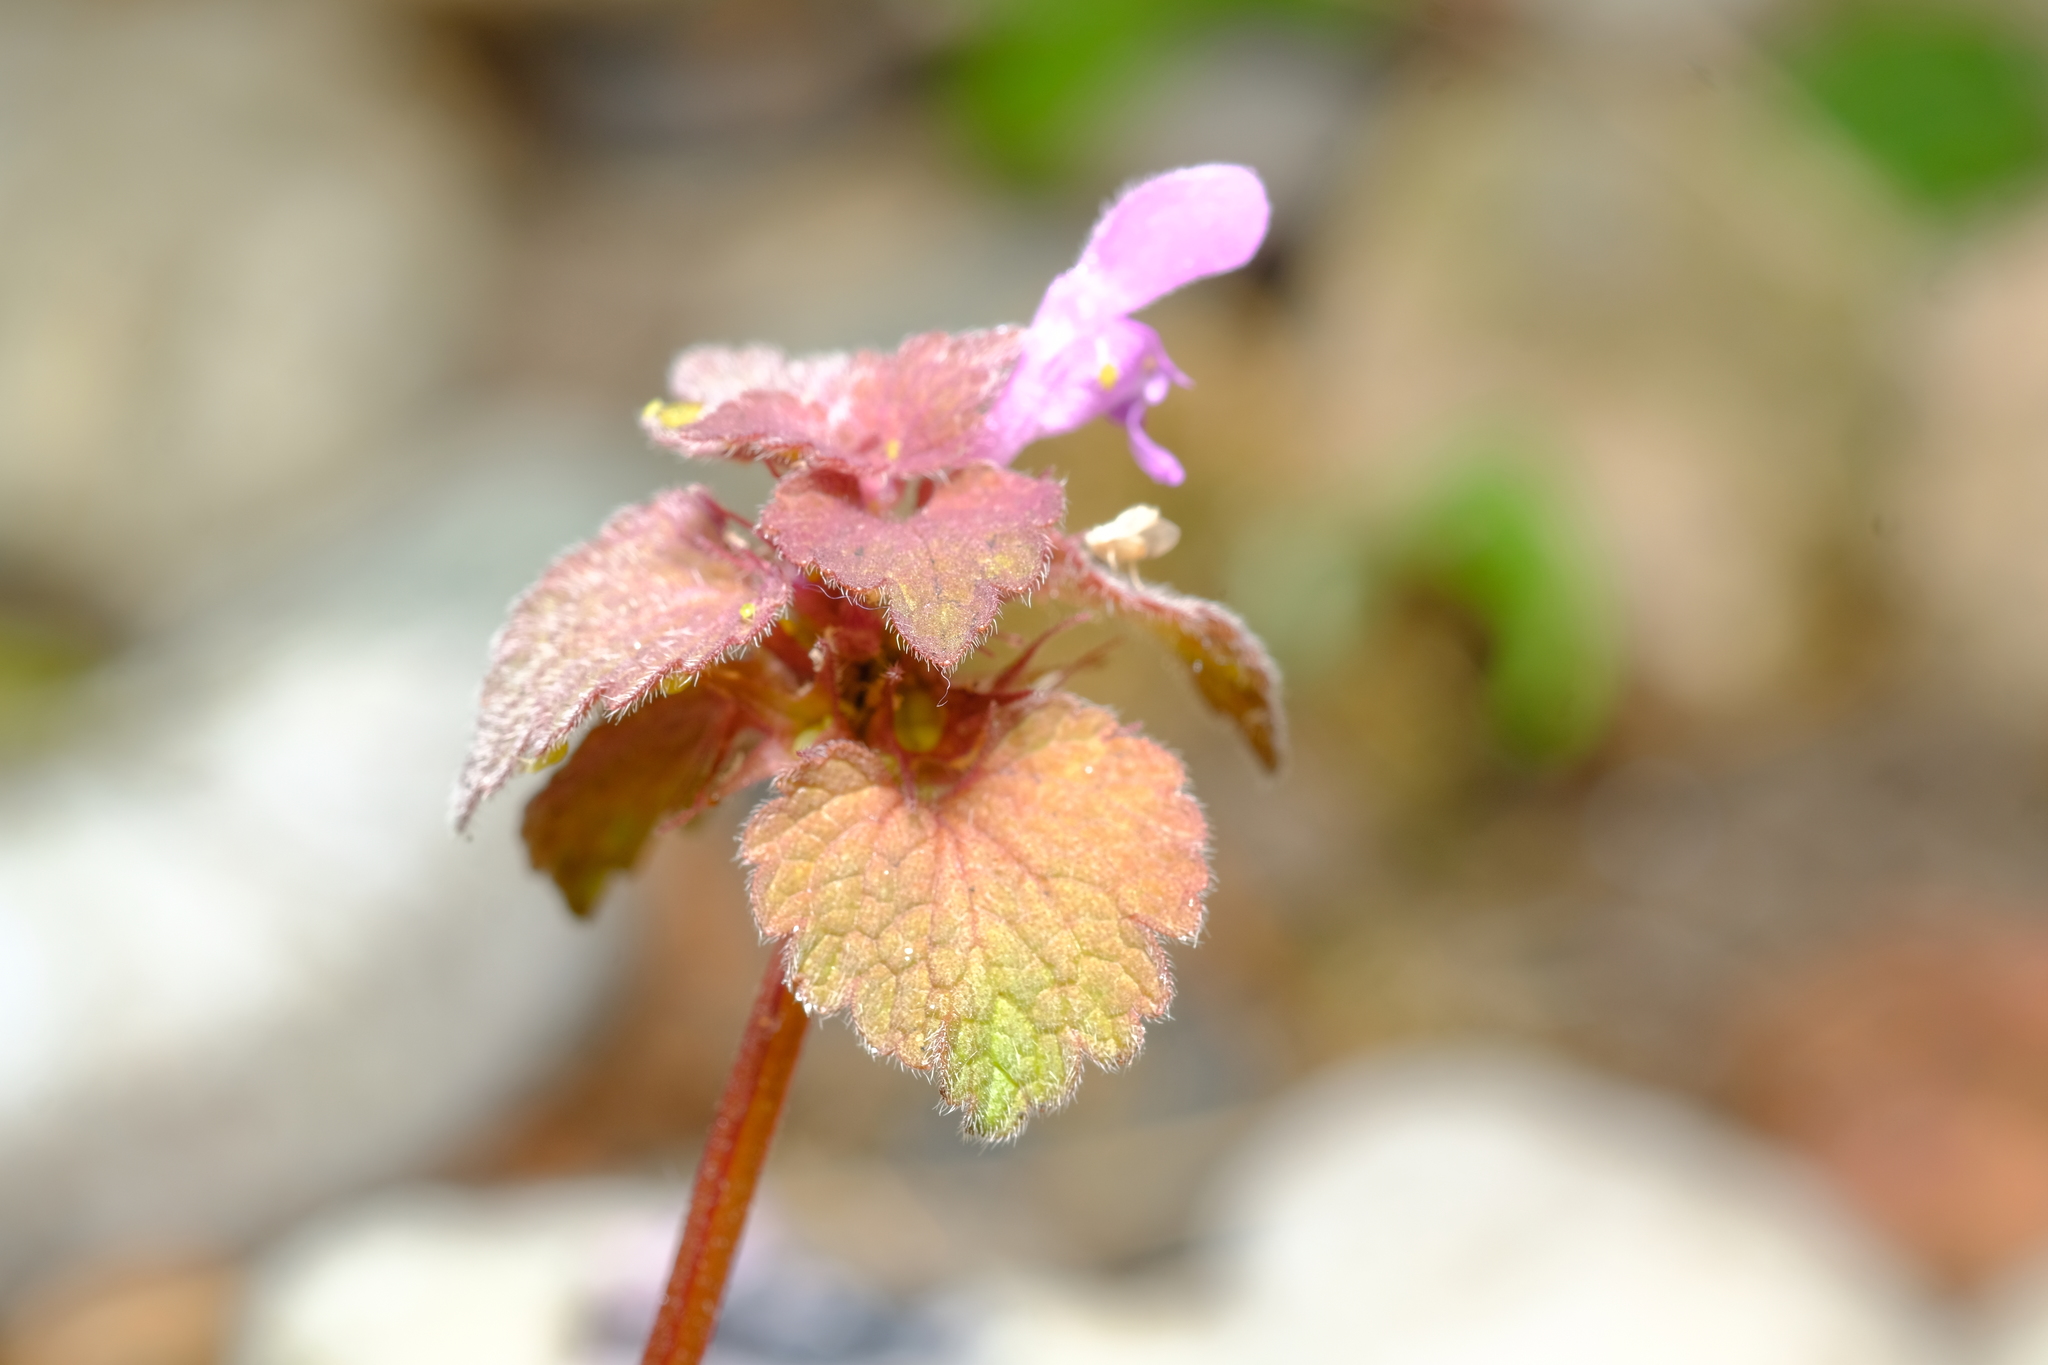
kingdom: Plantae
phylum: Tracheophyta
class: Magnoliopsida
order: Lamiales
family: Lamiaceae
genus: Lamium
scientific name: Lamium purpureum
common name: Red dead-nettle
